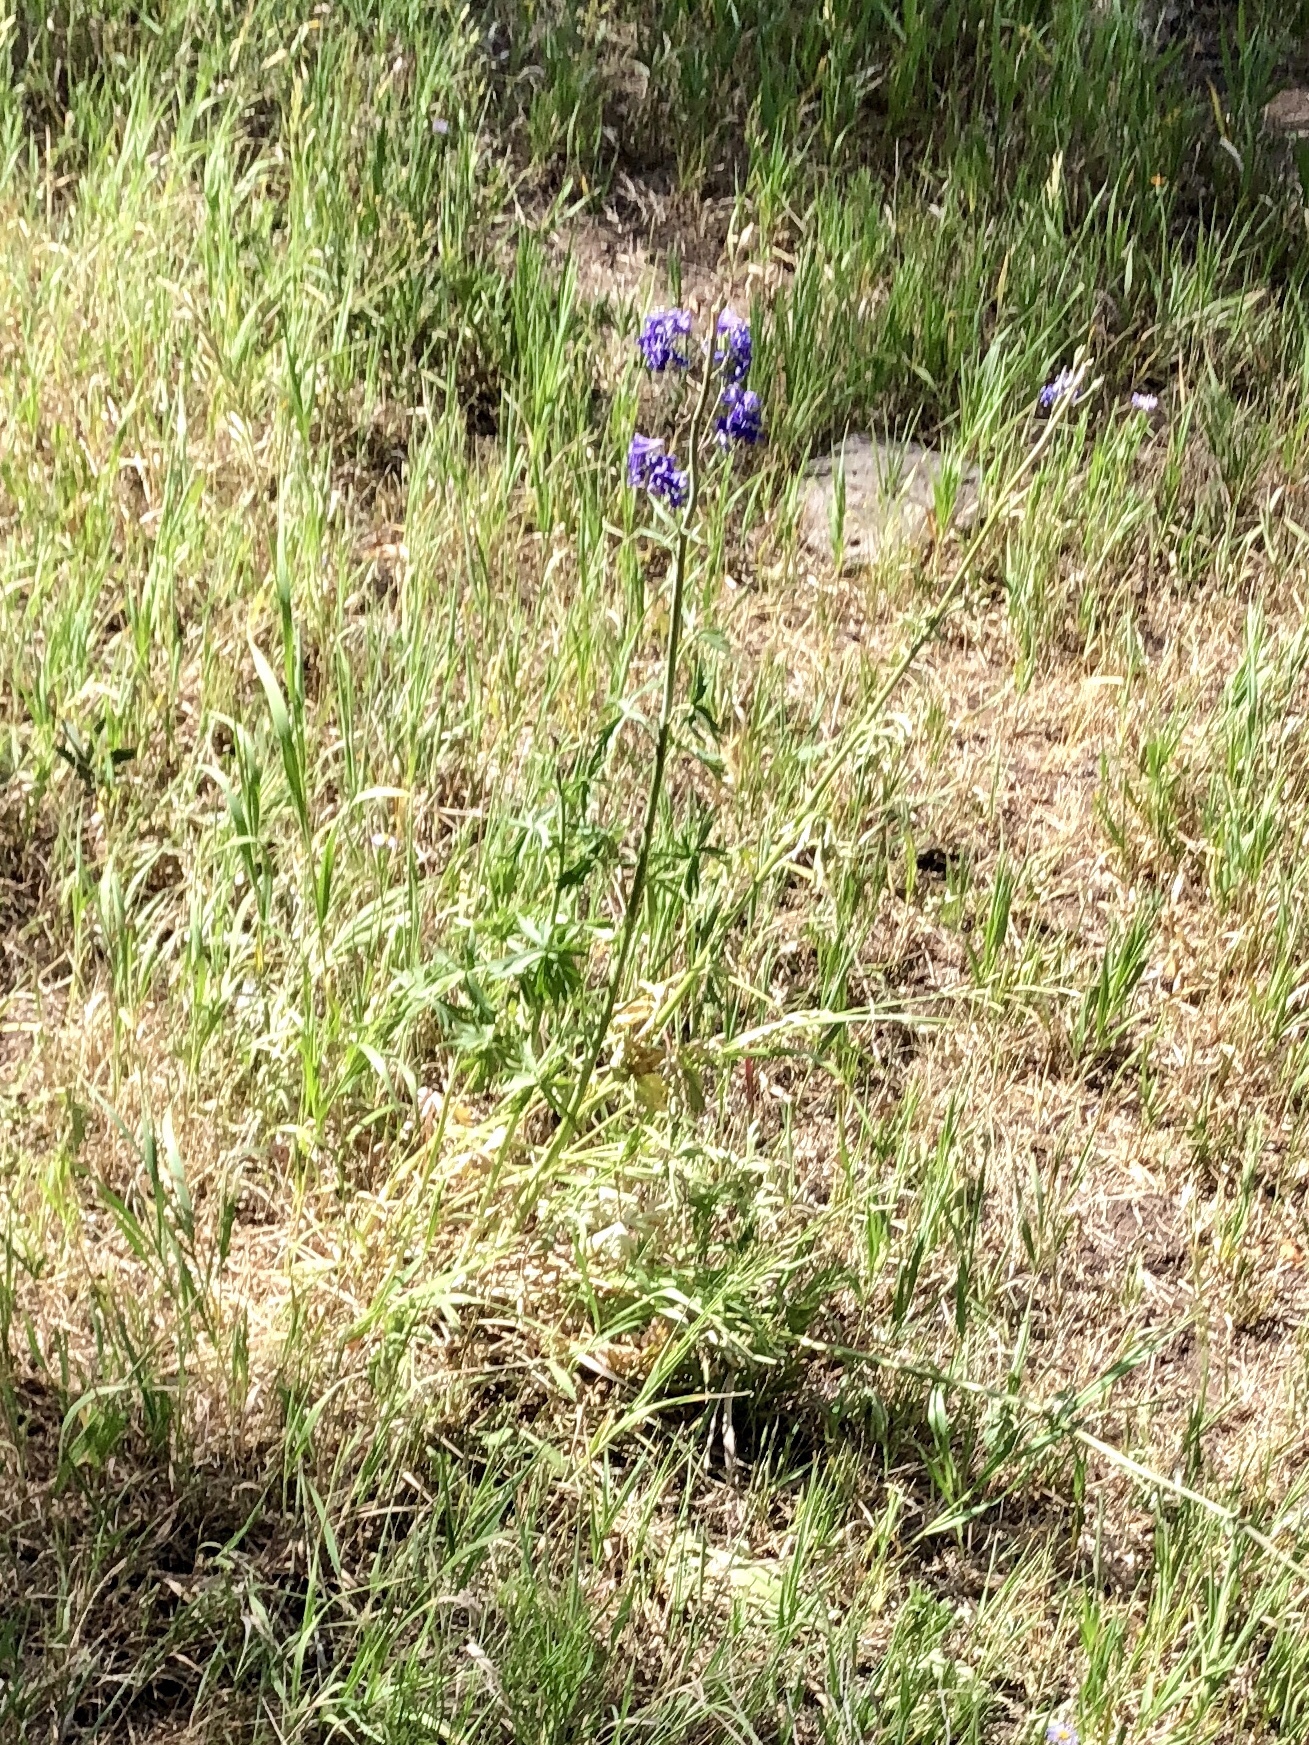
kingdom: Plantae
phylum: Tracheophyta
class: Magnoliopsida
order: Ranunculales
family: Ranunculaceae
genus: Delphinium
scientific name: Delphinium barbeyi
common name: Subalpine larkspur
